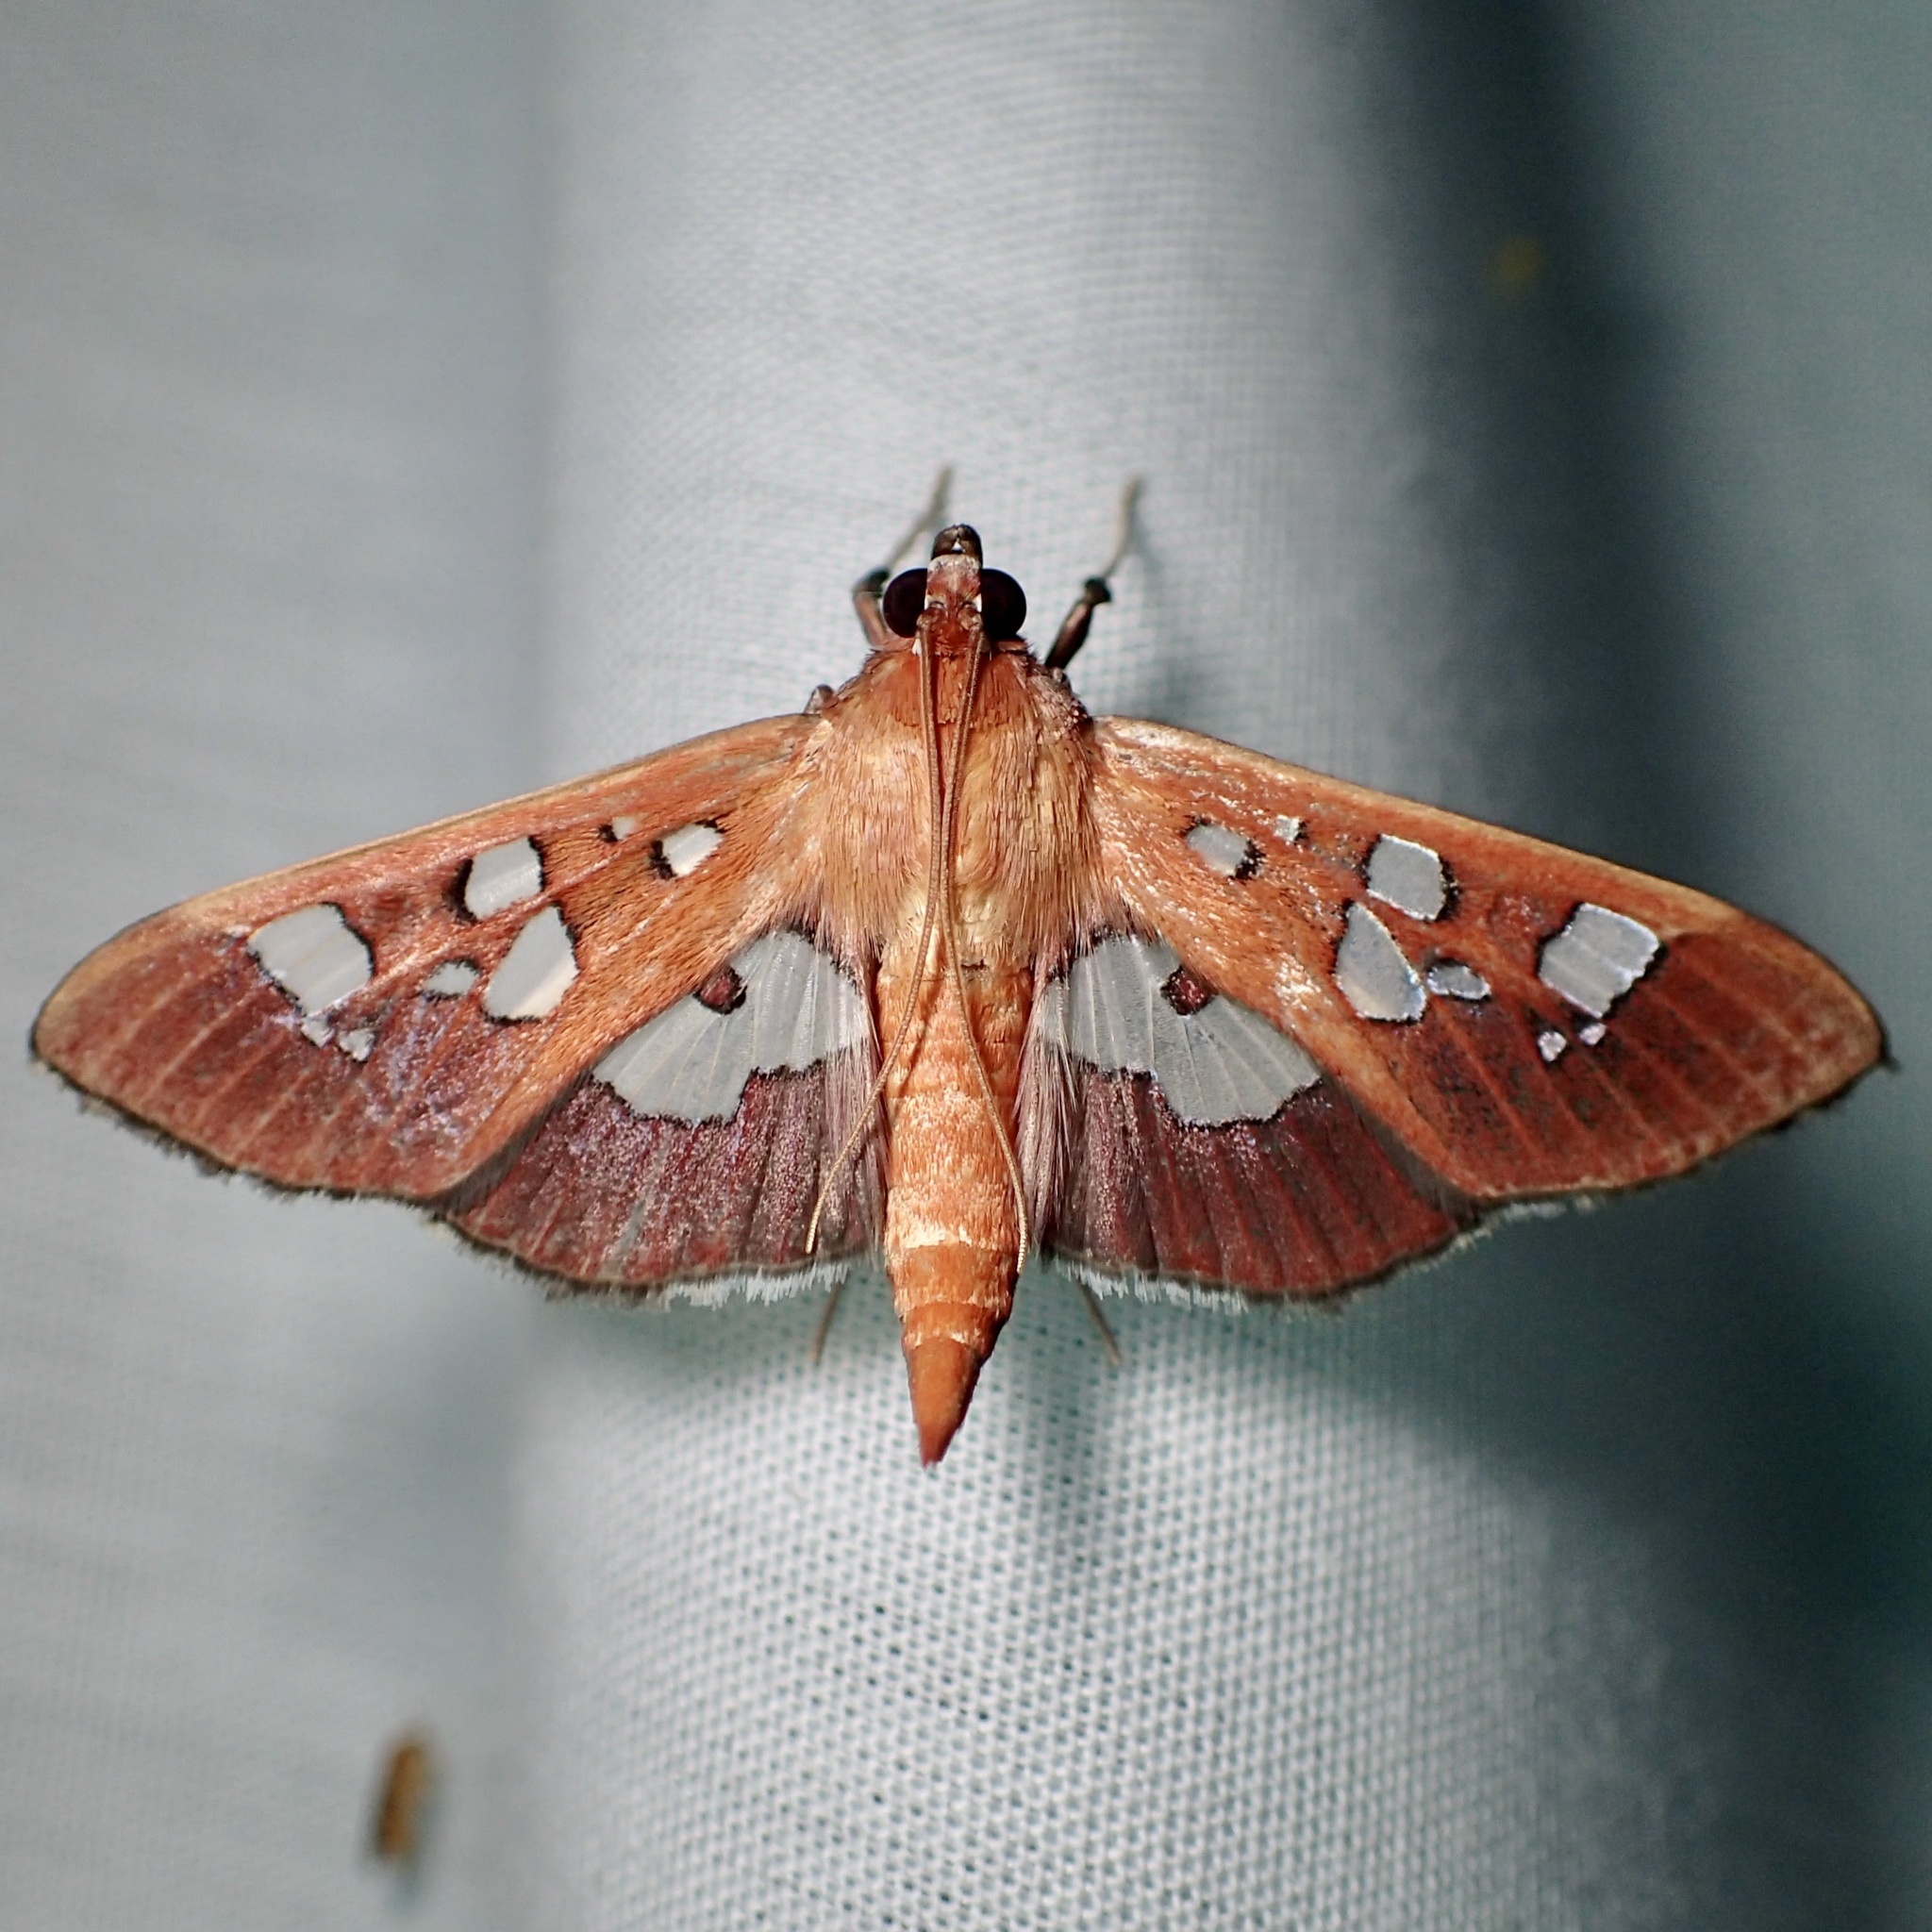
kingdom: Animalia
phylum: Arthropoda
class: Insecta
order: Lepidoptera
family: Crambidae
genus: Phostria
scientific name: Phostria tedea
